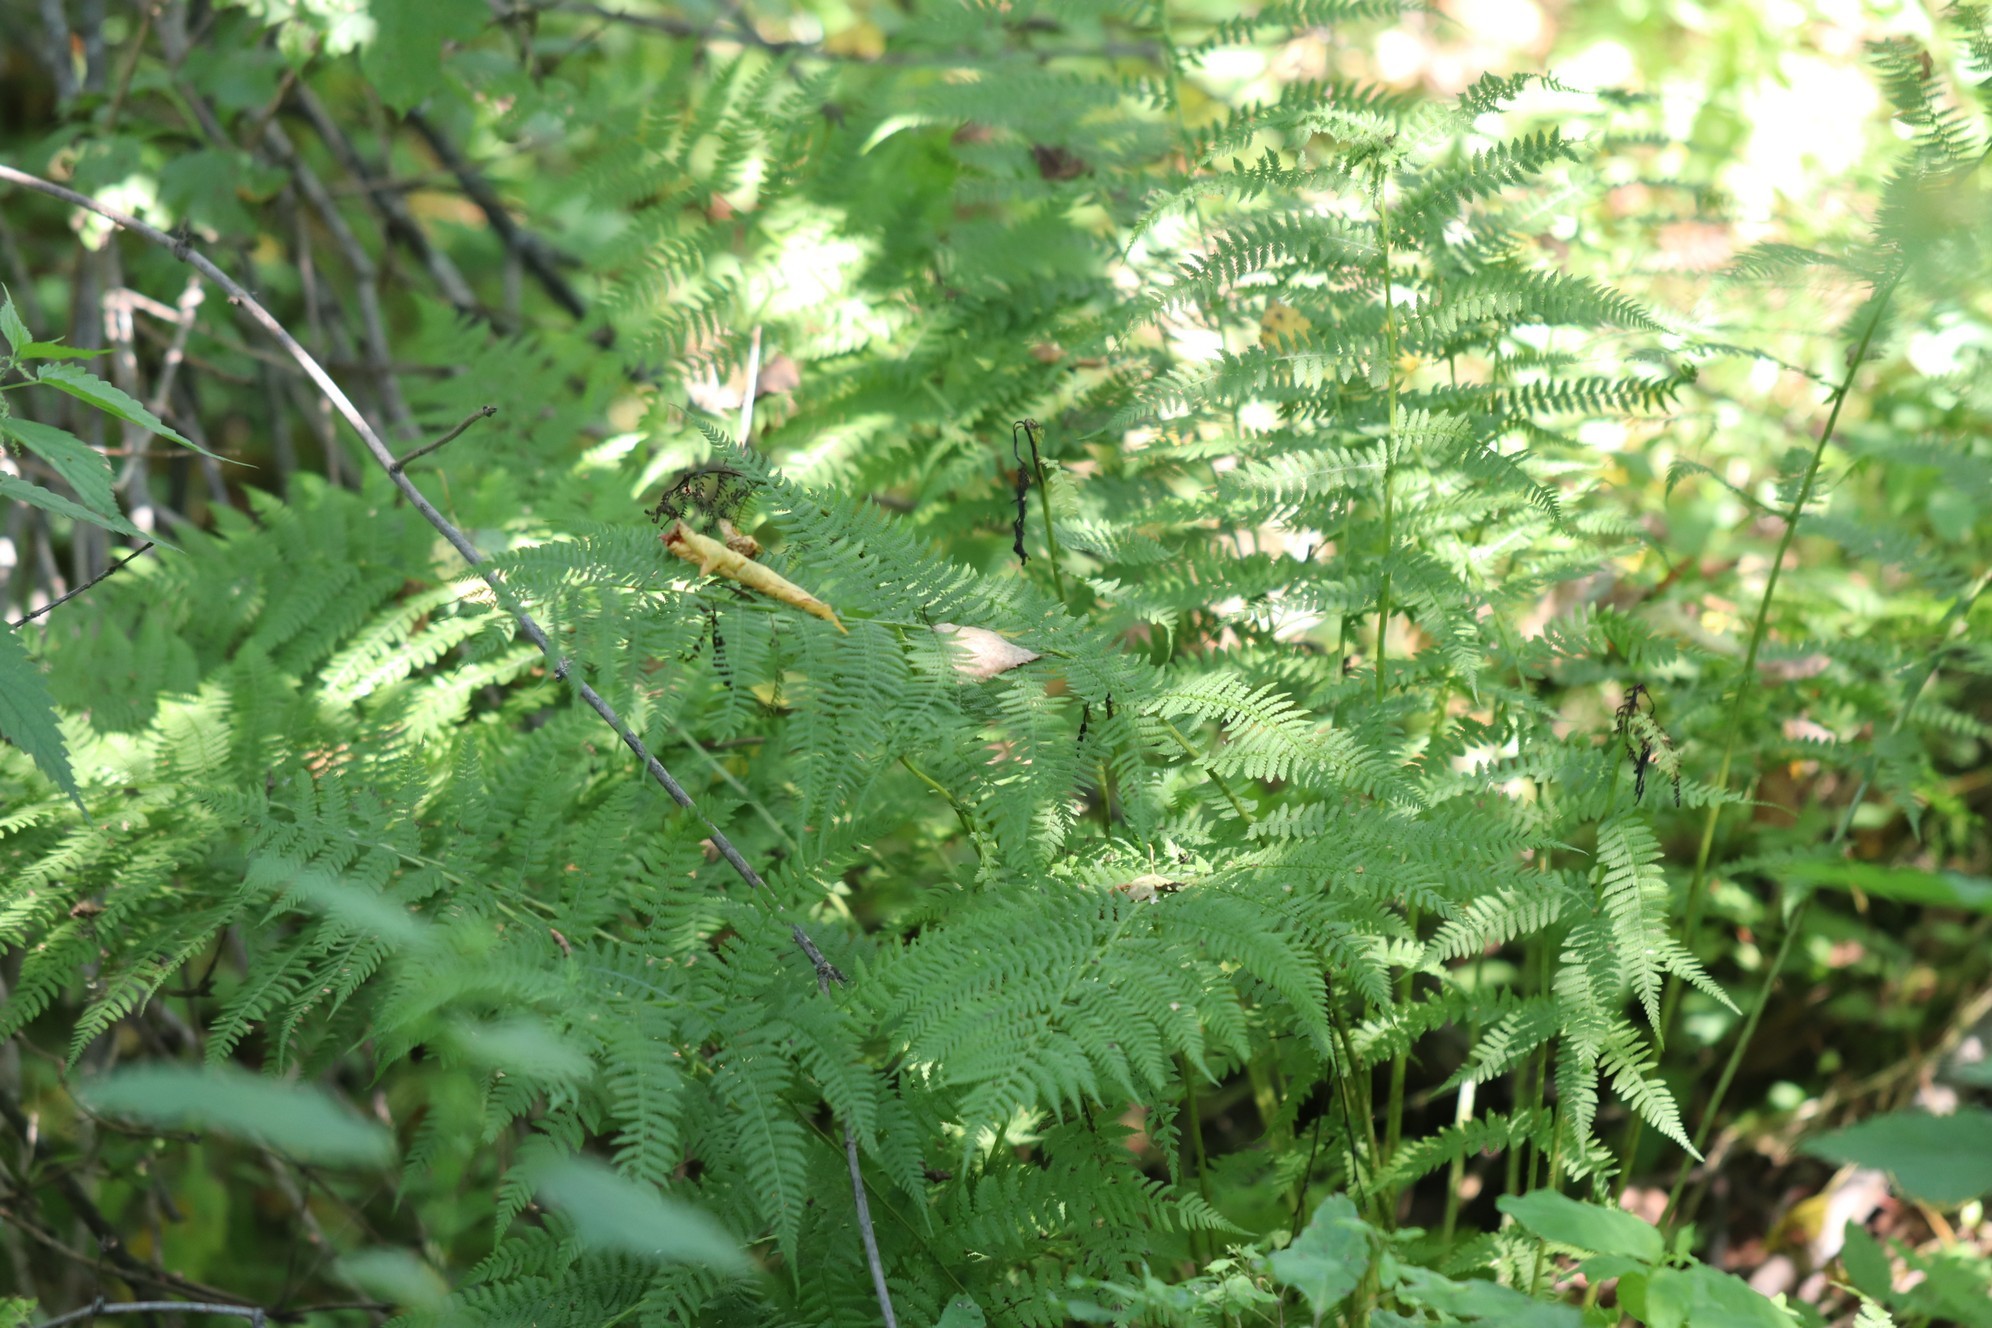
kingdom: Plantae
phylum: Tracheophyta
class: Polypodiopsida
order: Polypodiales
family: Athyriaceae
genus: Athyrium
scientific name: Athyrium filix-femina
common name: Lady fern
